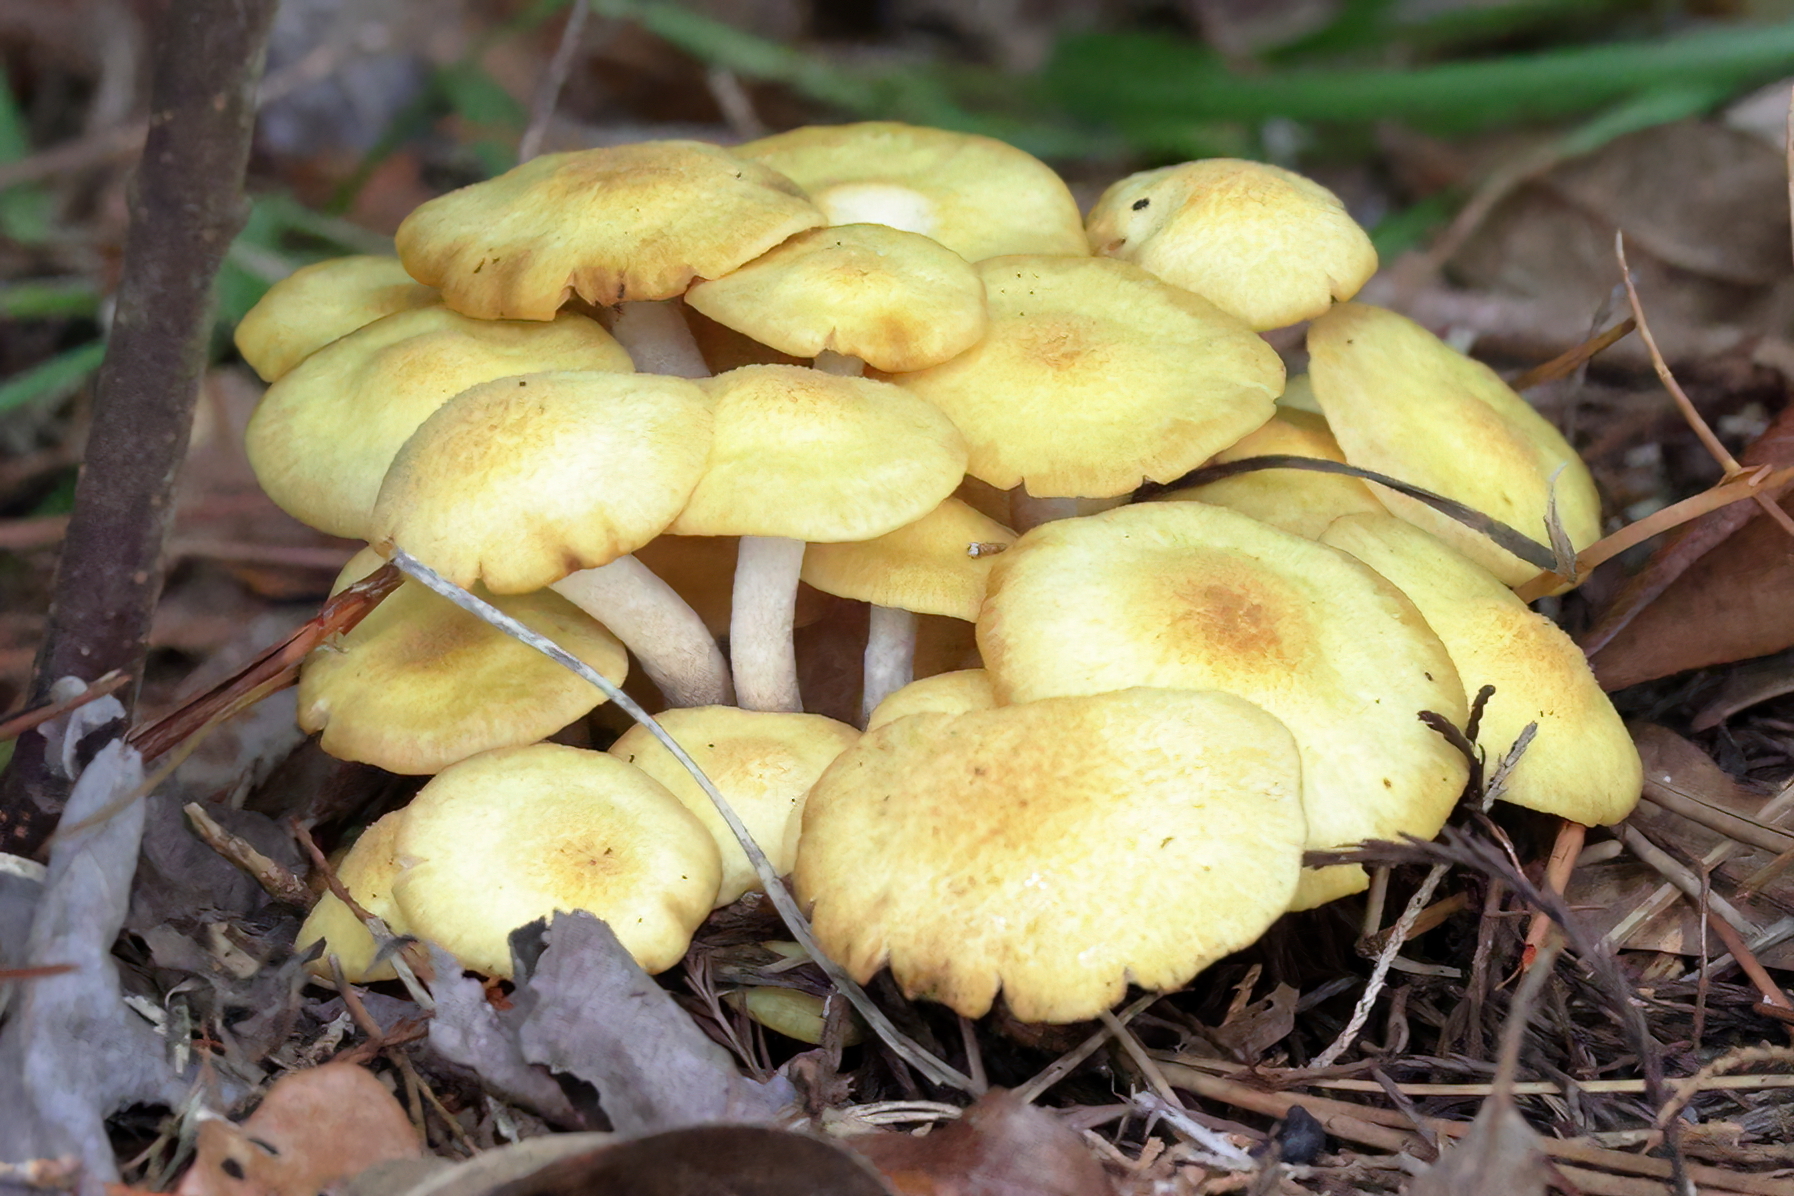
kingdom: Fungi
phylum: Basidiomycota
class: Agaricomycetes
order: Agaricales
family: Physalacriaceae
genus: Desarmillaria
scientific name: Desarmillaria caespitosa
